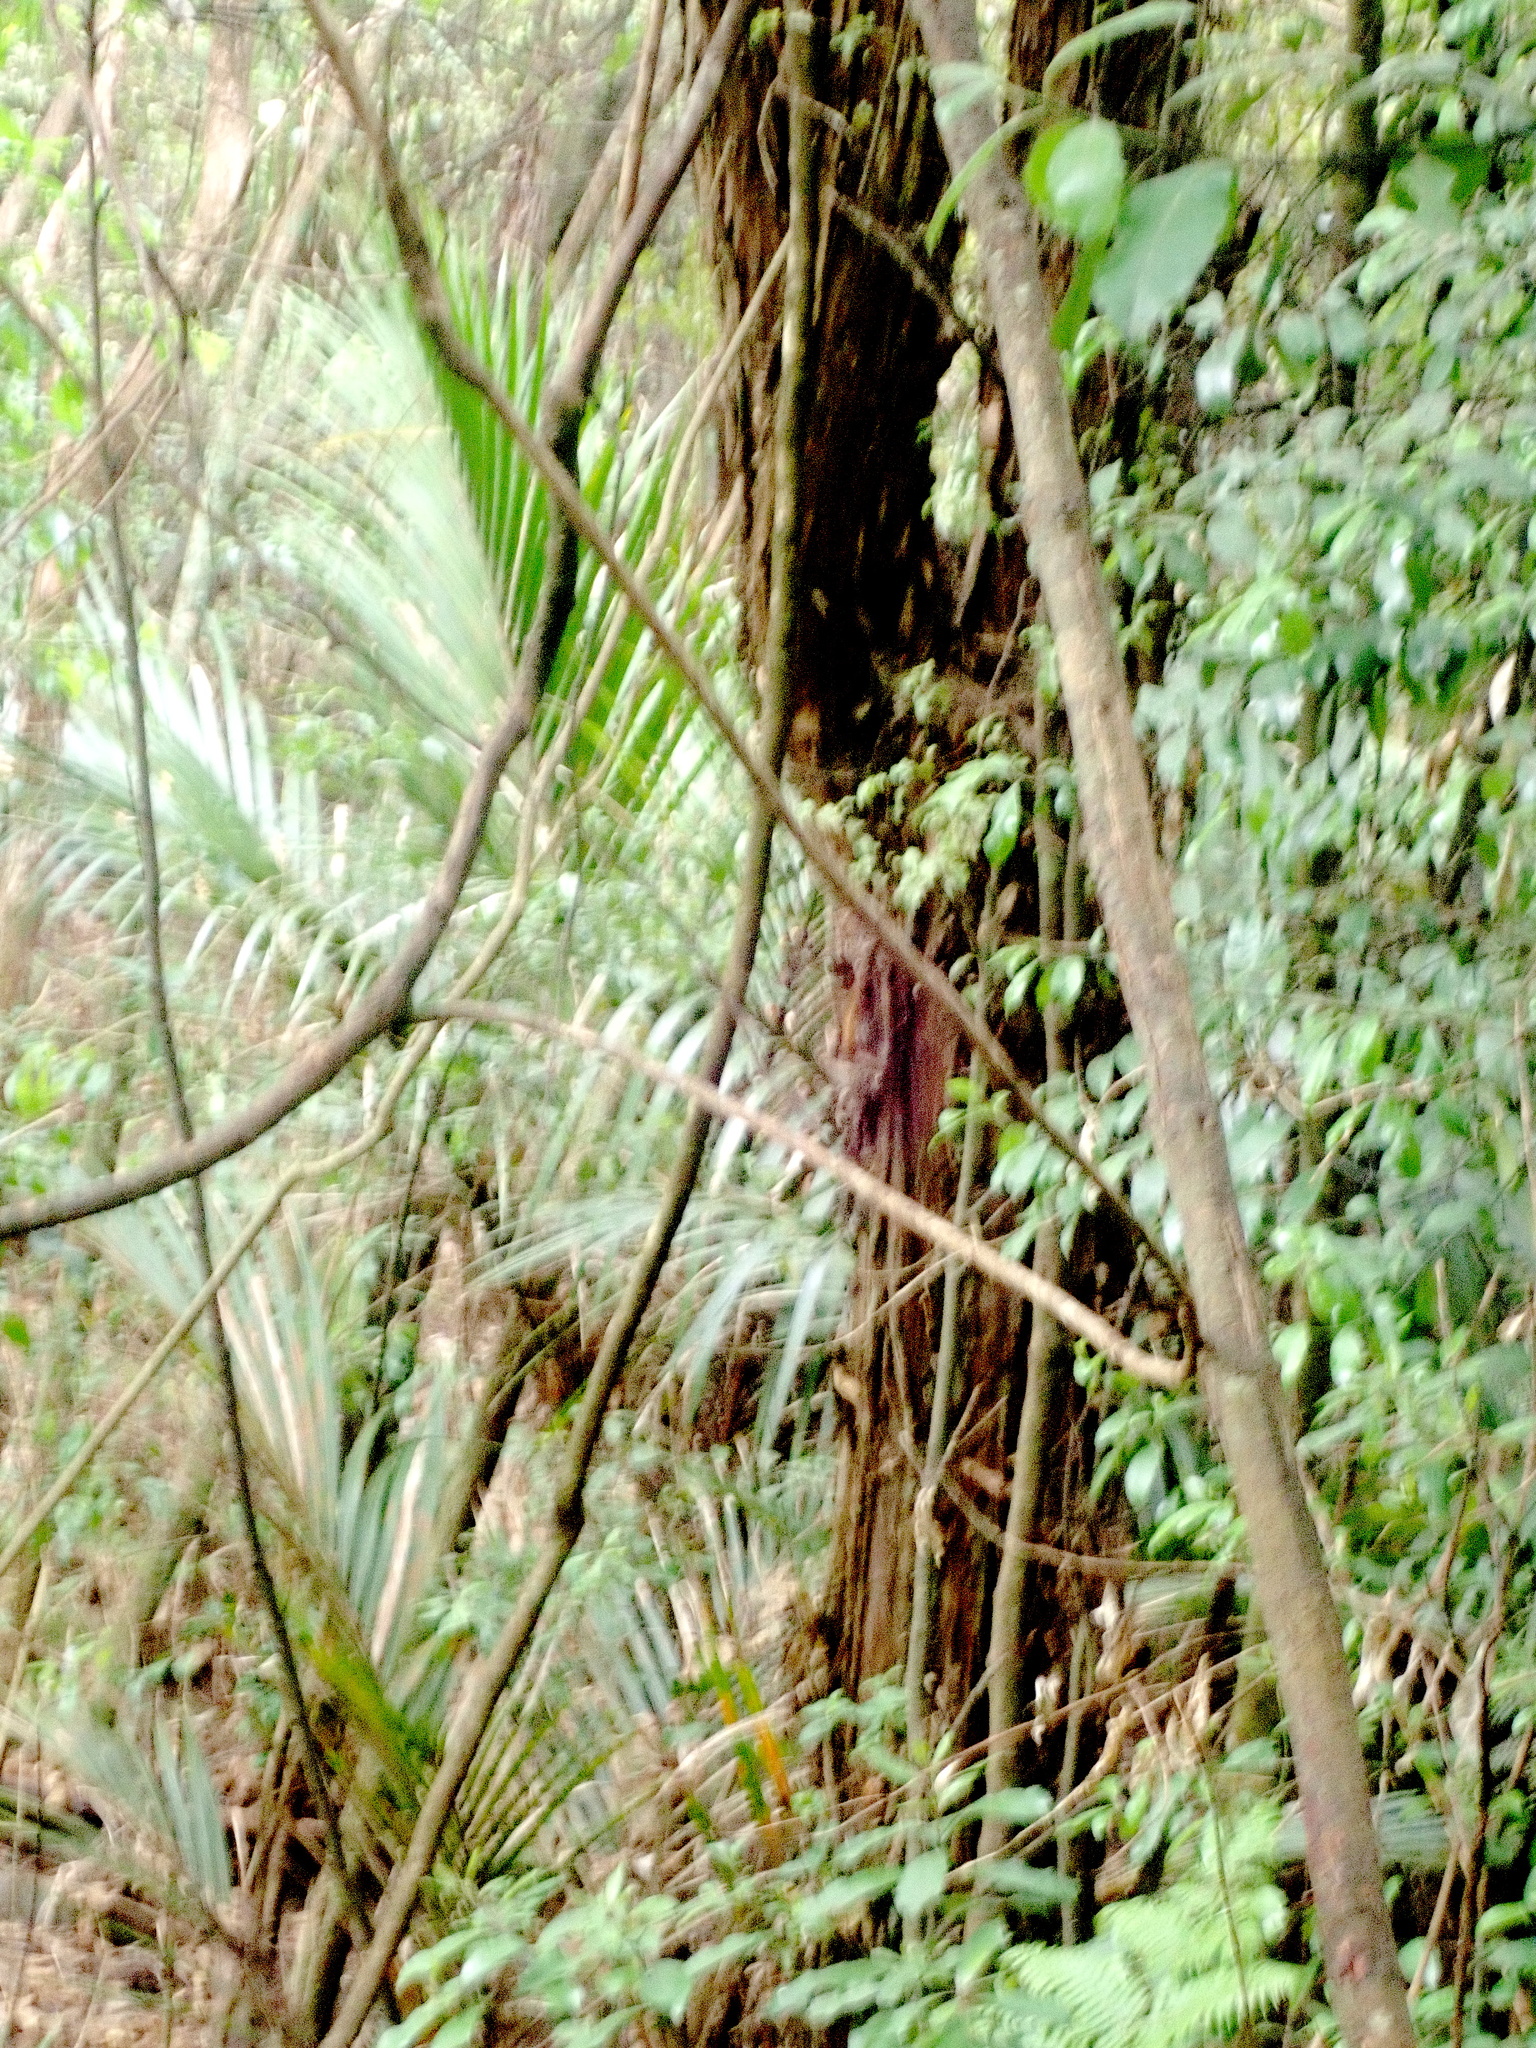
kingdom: Plantae
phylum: Tracheophyta
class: Liliopsida
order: Arecales
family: Arecaceae
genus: Rhopalostylis
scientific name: Rhopalostylis sapida
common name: Feather-duster palm
